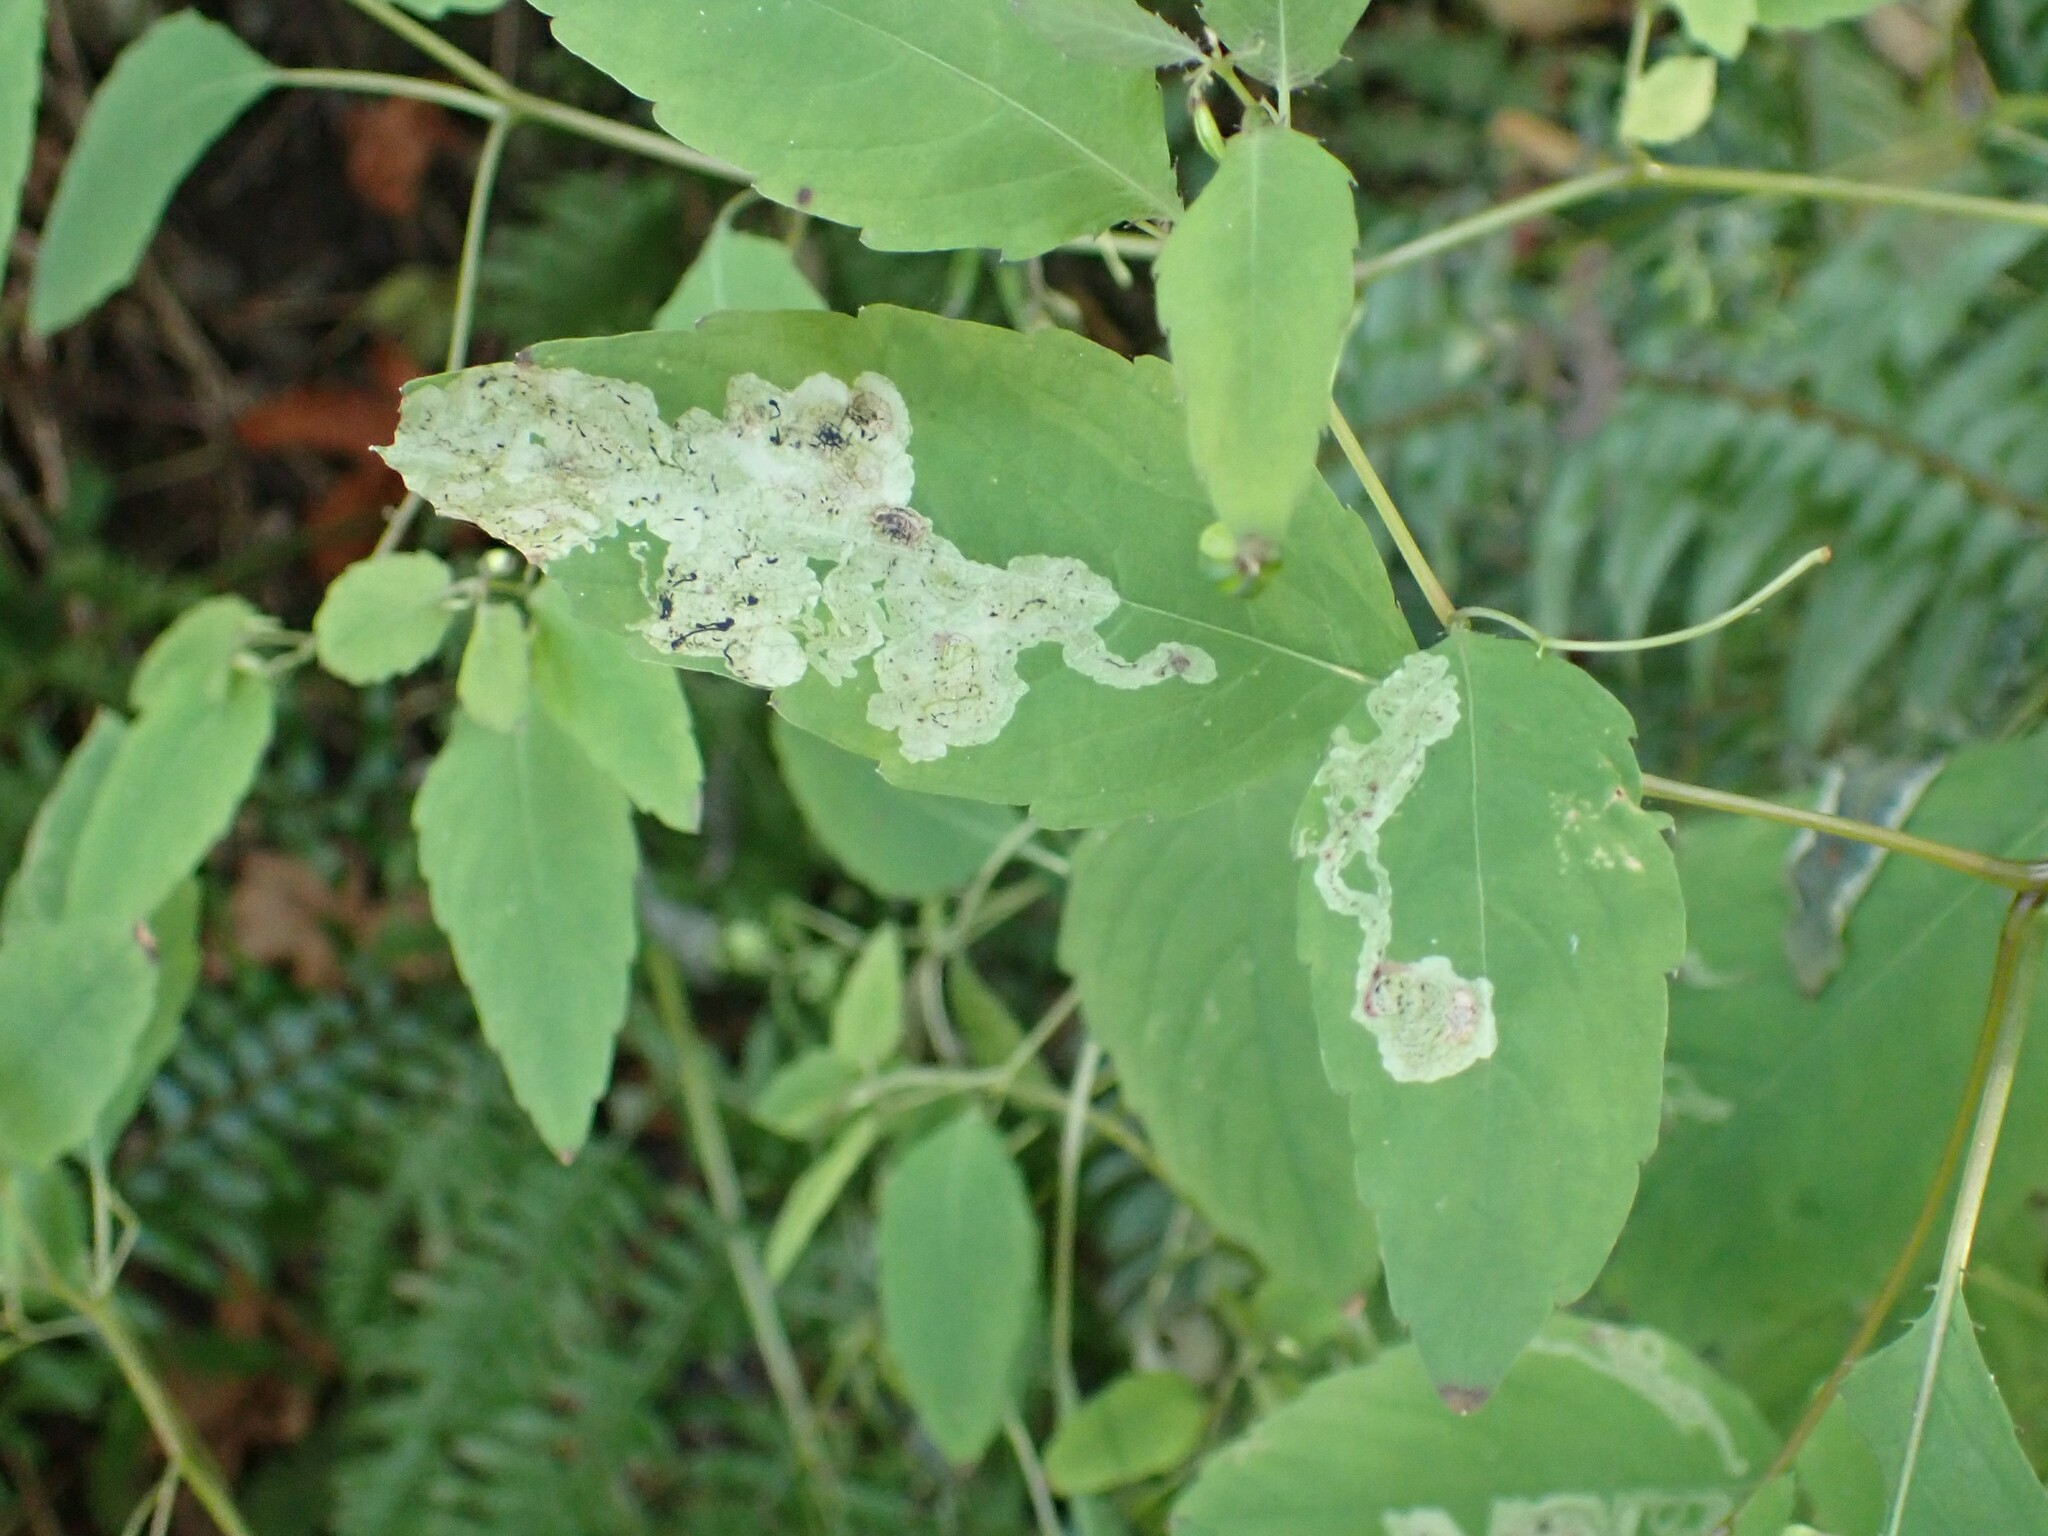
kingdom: Animalia
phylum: Arthropoda
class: Insecta
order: Diptera
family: Agromyzidae
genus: Phytoliriomyza
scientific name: Phytoliriomyza melampyga
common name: Jewelweed leaf-miner fly
